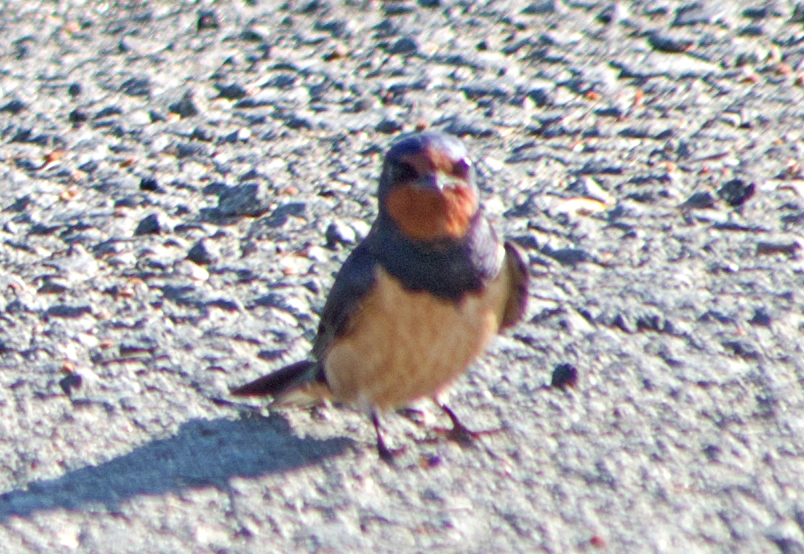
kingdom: Animalia
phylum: Chordata
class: Aves
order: Passeriformes
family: Hirundinidae
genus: Hirundo
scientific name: Hirundo rustica
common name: Barn swallow
